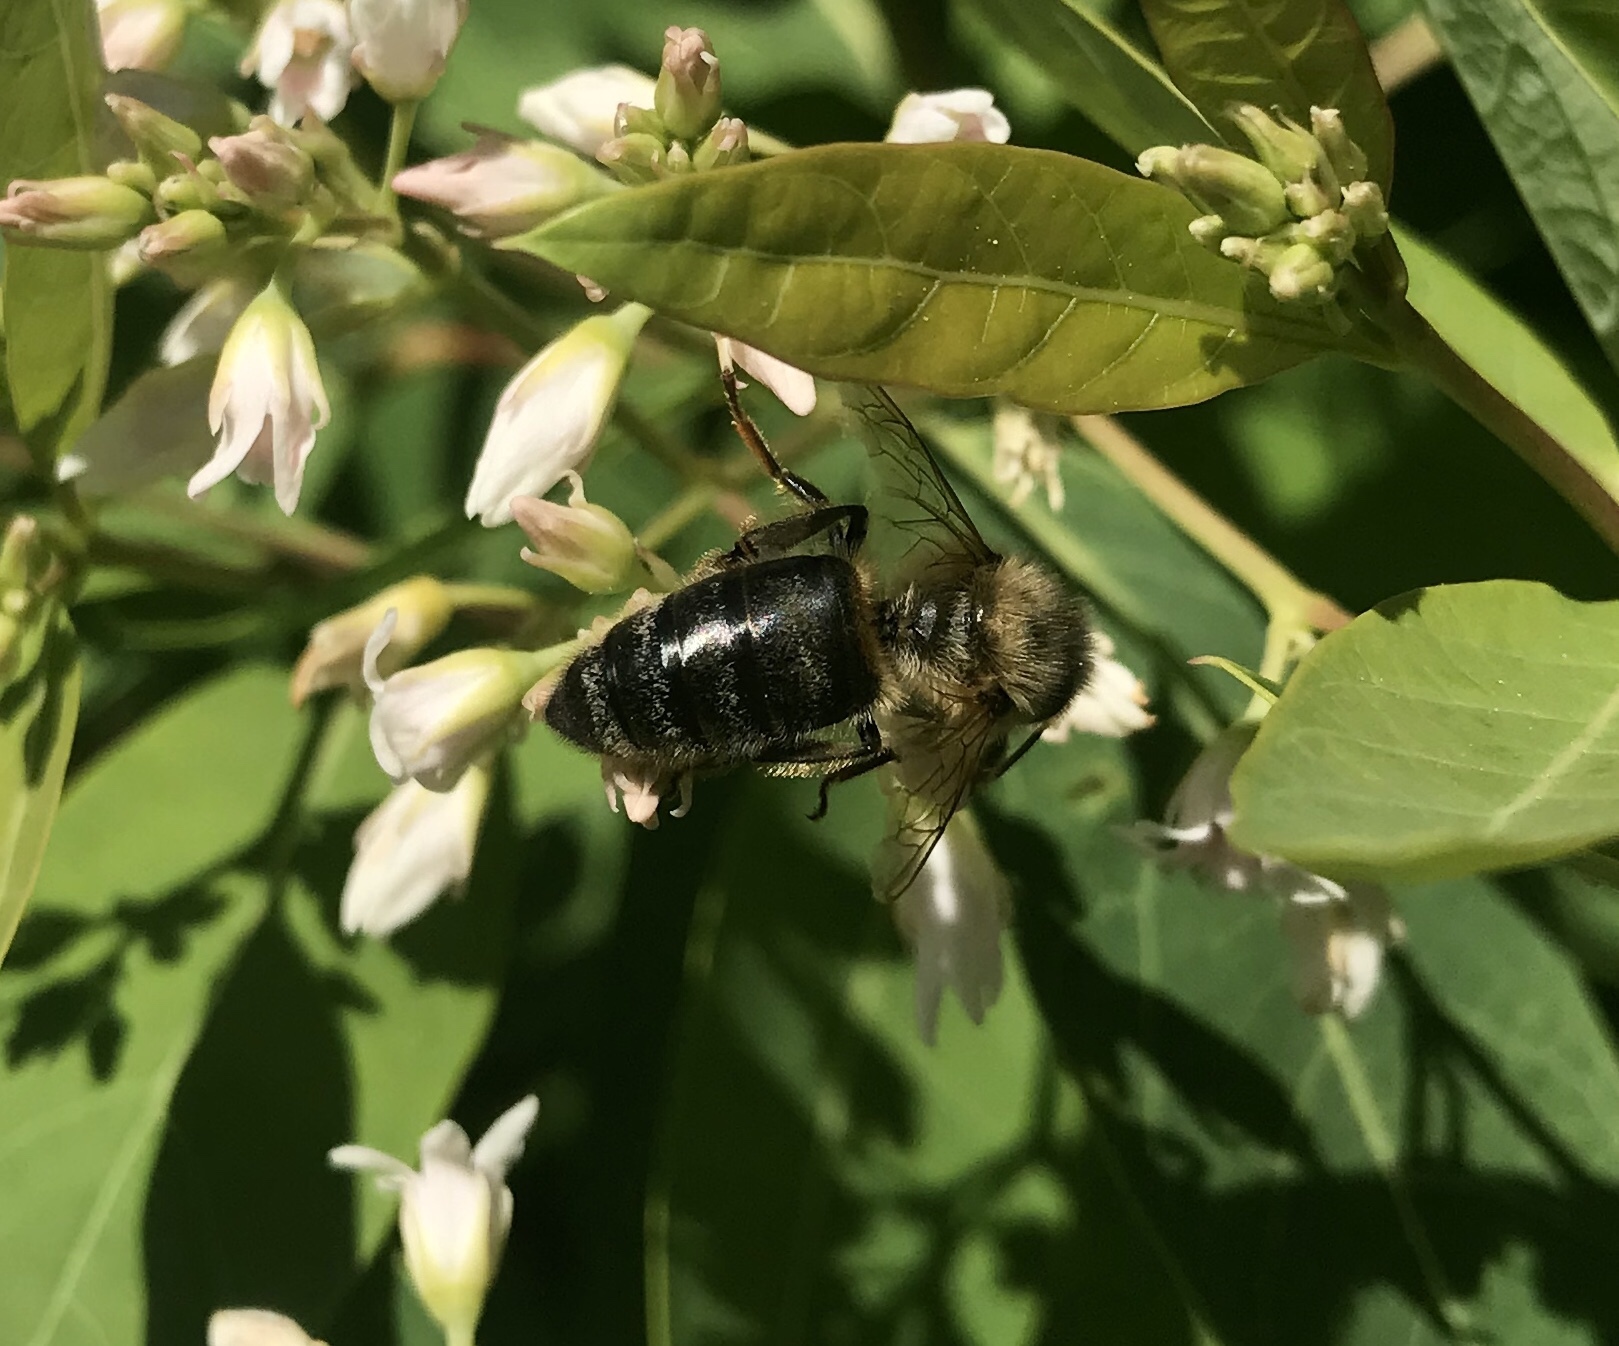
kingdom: Animalia
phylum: Arthropoda
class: Insecta
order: Hymenoptera
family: Apidae
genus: Apis
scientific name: Apis mellifera
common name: Honey bee
